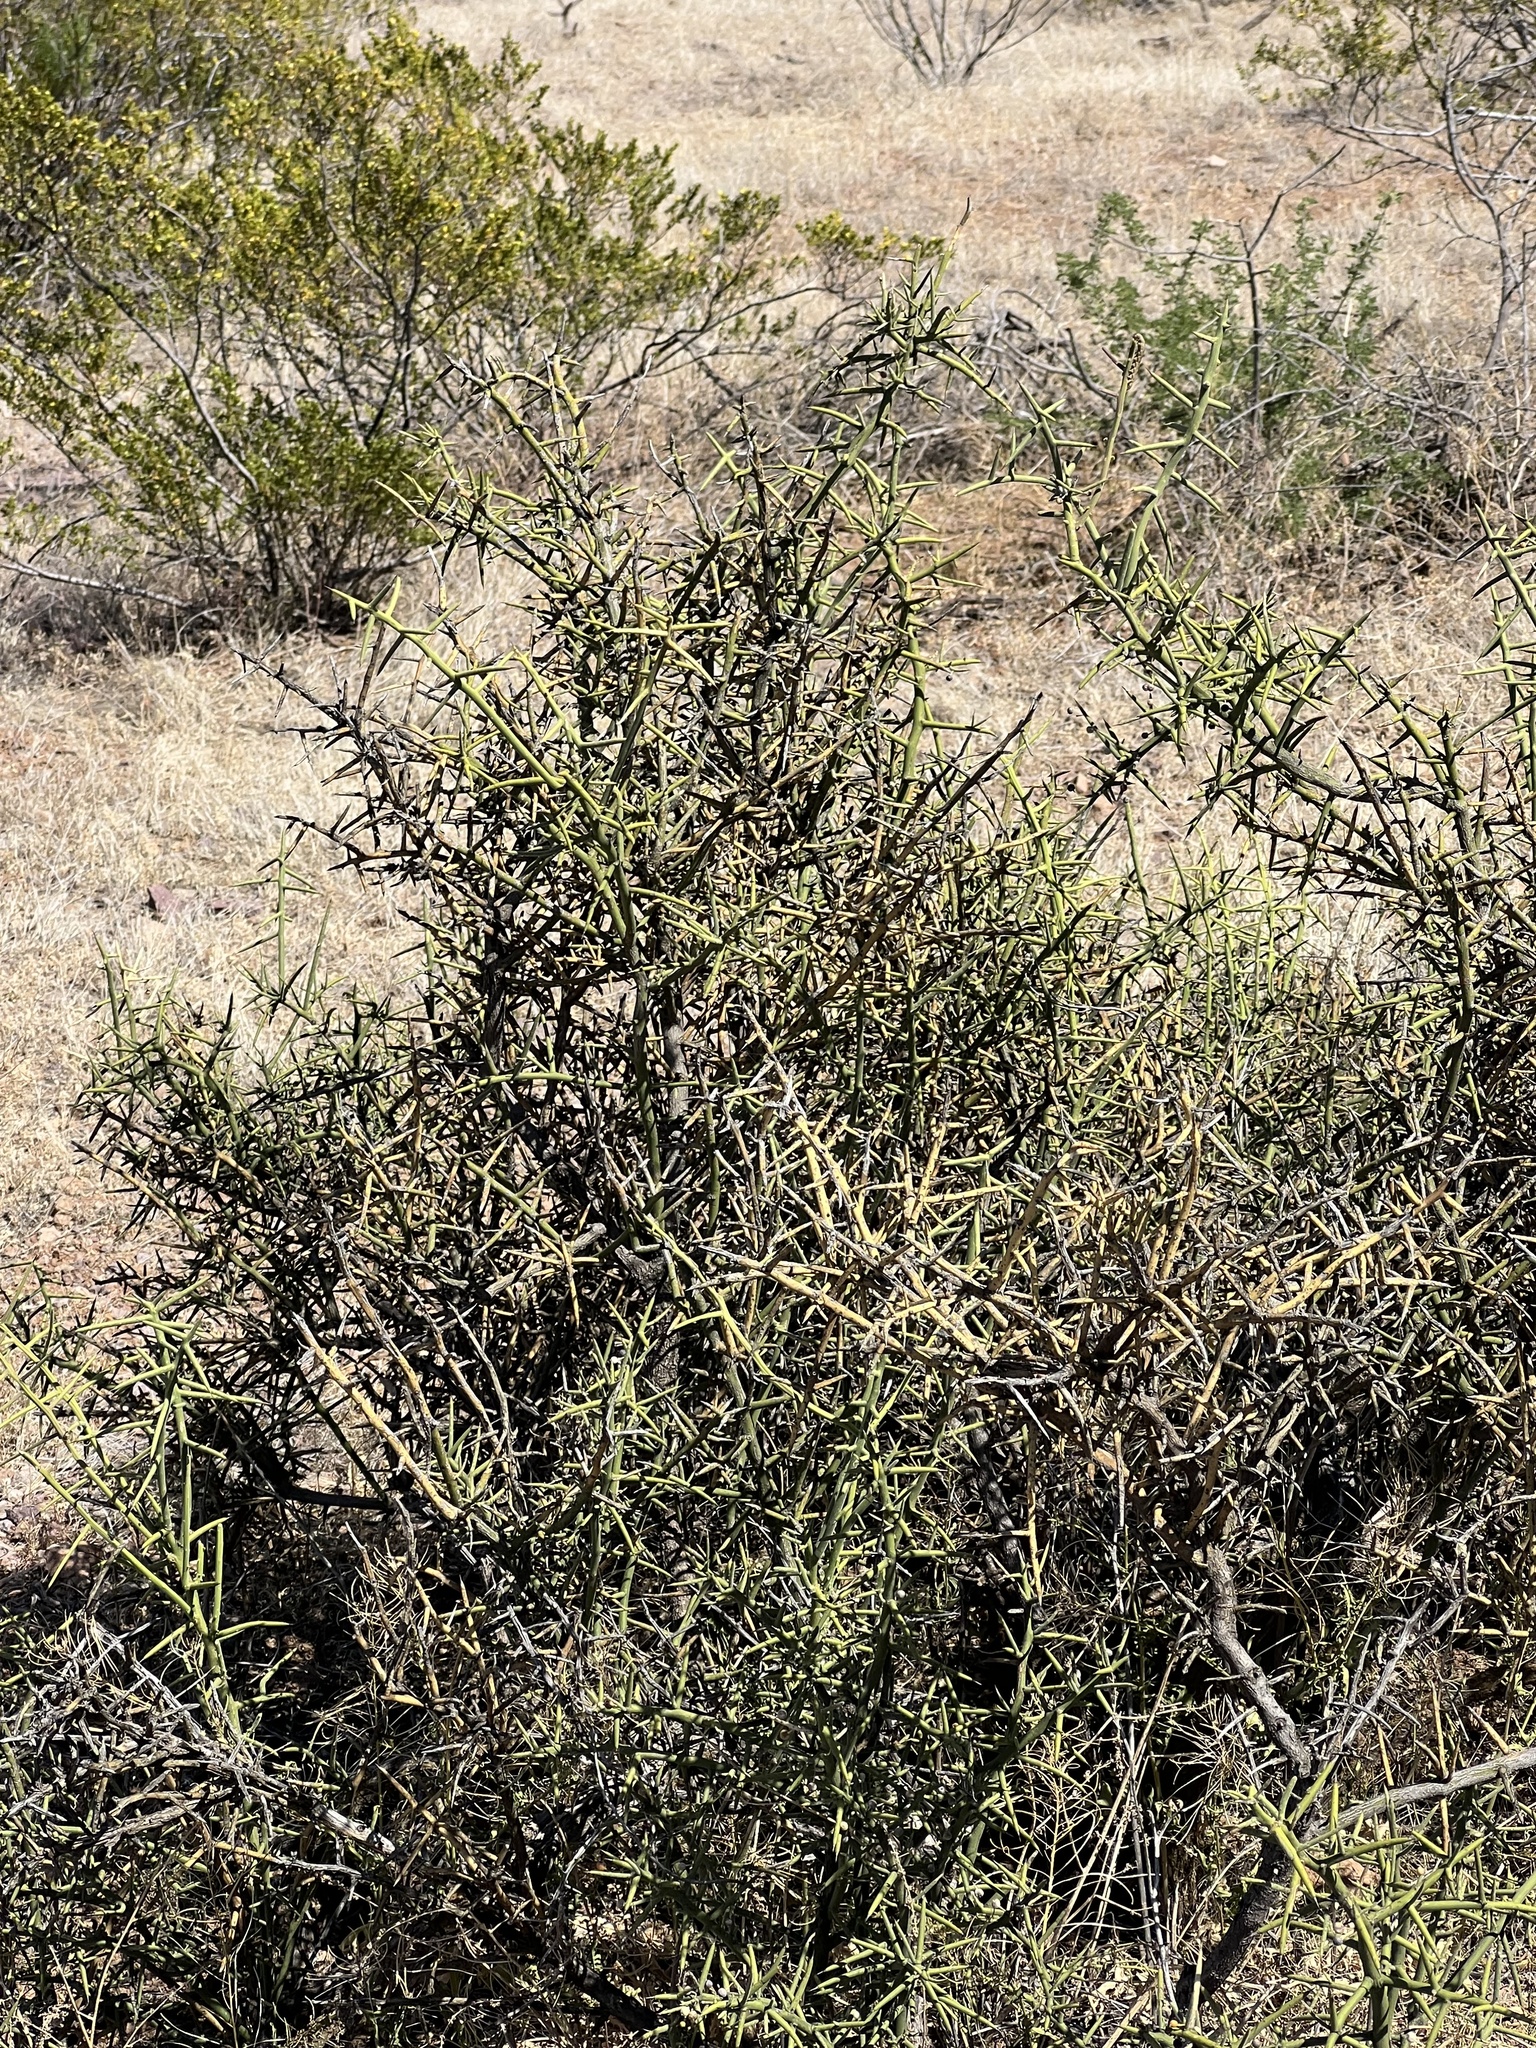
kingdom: Plantae
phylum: Tracheophyta
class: Magnoliopsida
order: Brassicales
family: Koeberliniaceae
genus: Koeberlinia
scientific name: Koeberlinia spinosa
